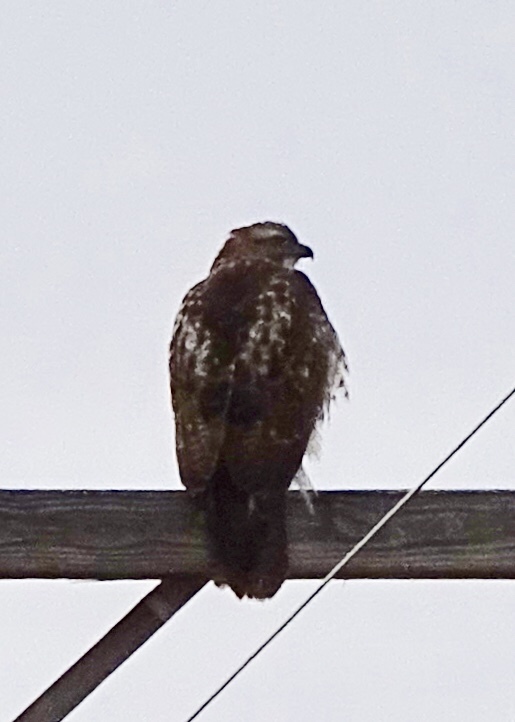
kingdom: Animalia
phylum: Chordata
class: Aves
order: Accipitriformes
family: Accipitridae
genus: Buteo
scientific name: Buteo jamaicensis
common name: Red-tailed hawk
